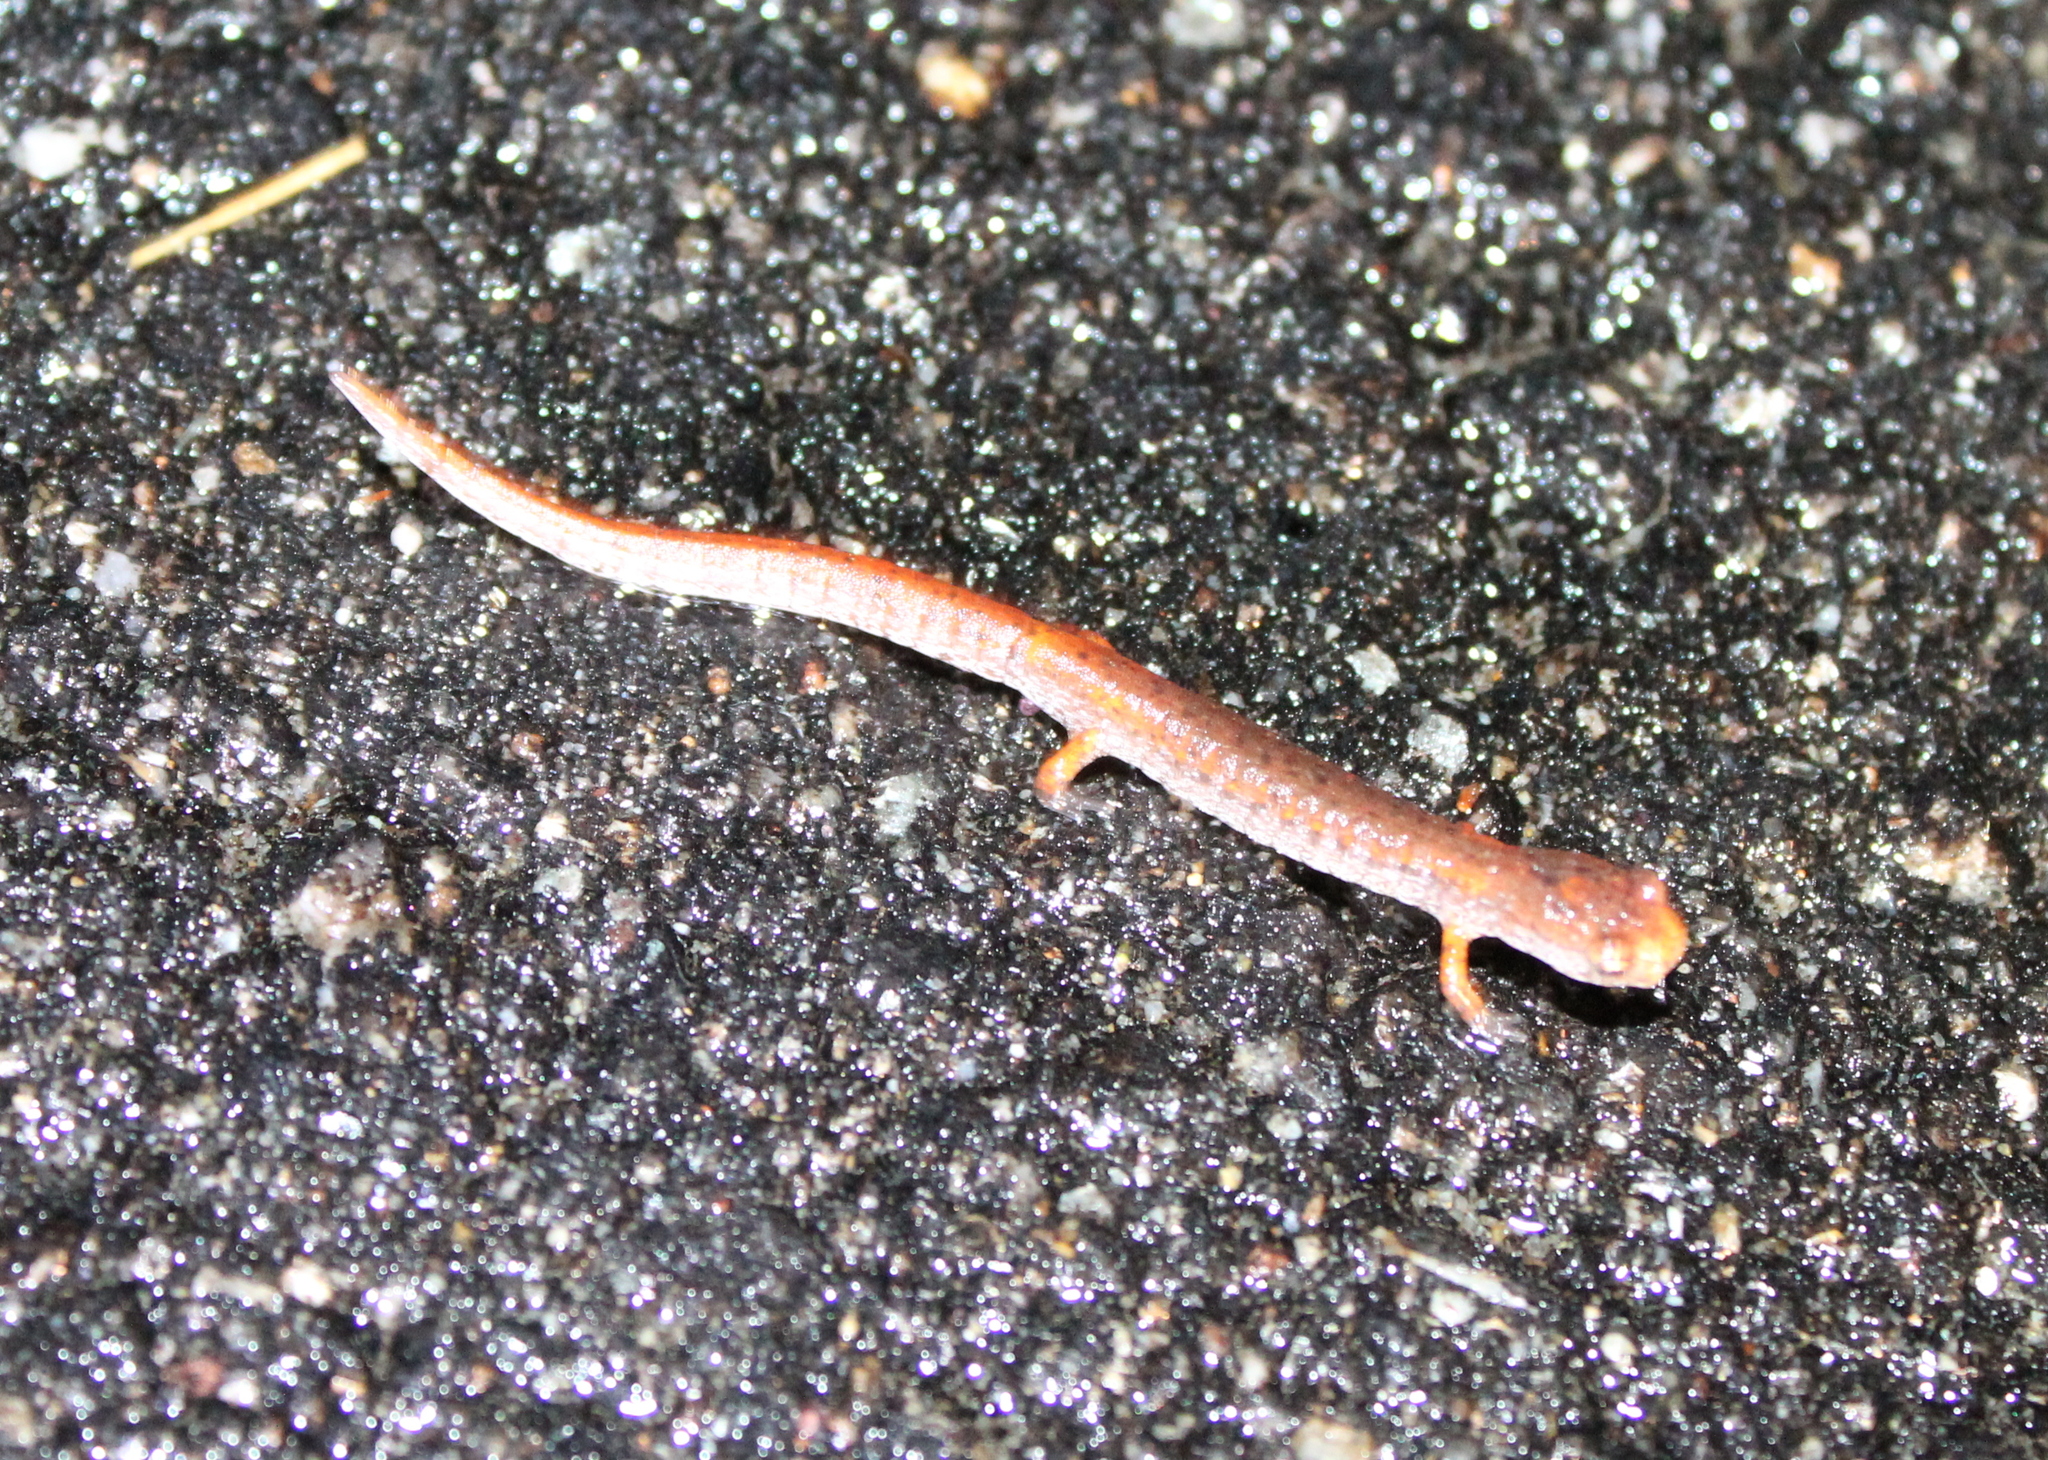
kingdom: Animalia
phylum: Chordata
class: Amphibia
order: Caudata
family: Plethodontidae
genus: Hemidactylium
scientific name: Hemidactylium scutatum
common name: Four-toed salamander
